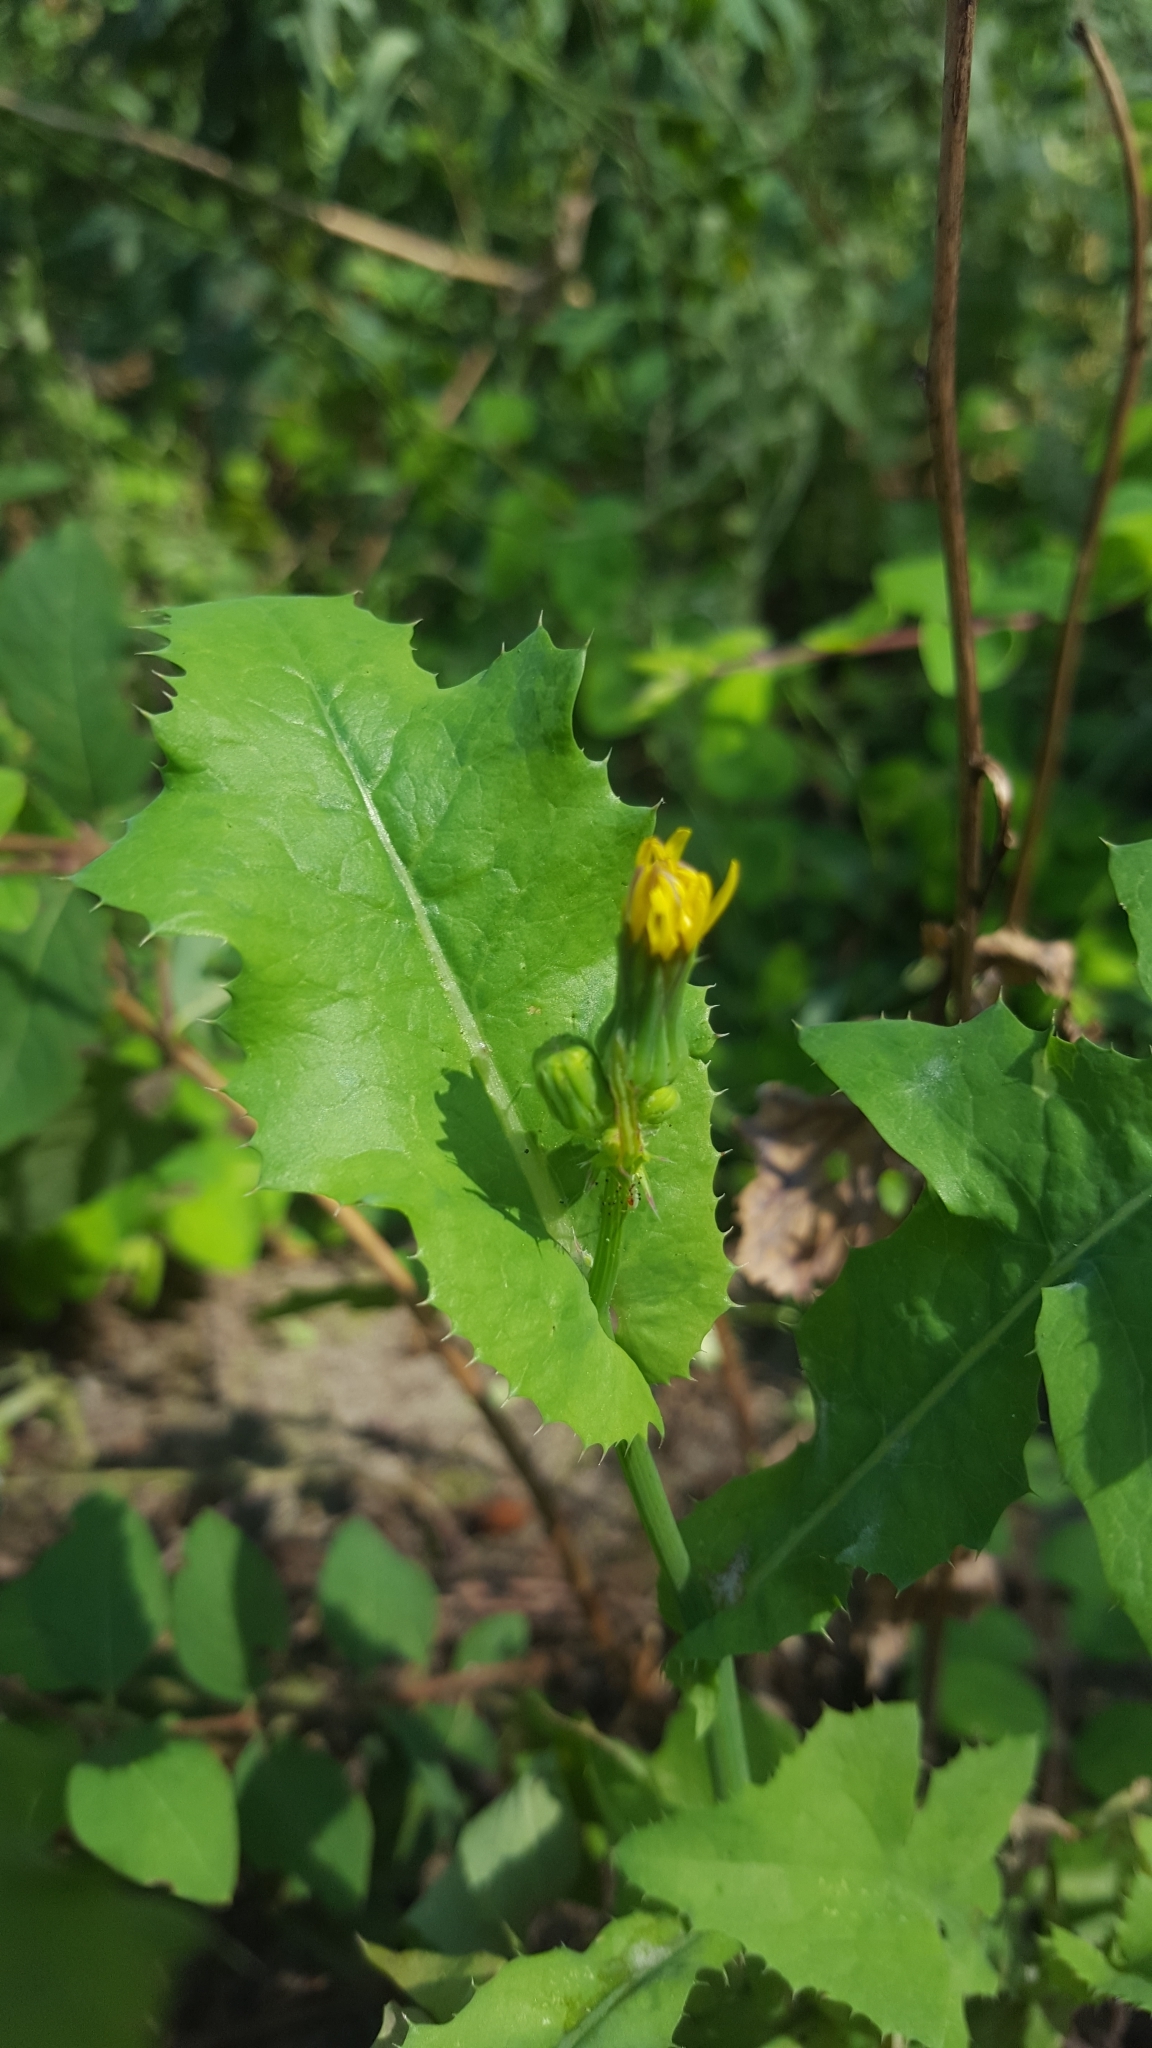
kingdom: Plantae
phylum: Tracheophyta
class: Magnoliopsida
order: Asterales
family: Asteraceae
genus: Sonchus
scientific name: Sonchus oleraceus
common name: Common sowthistle
